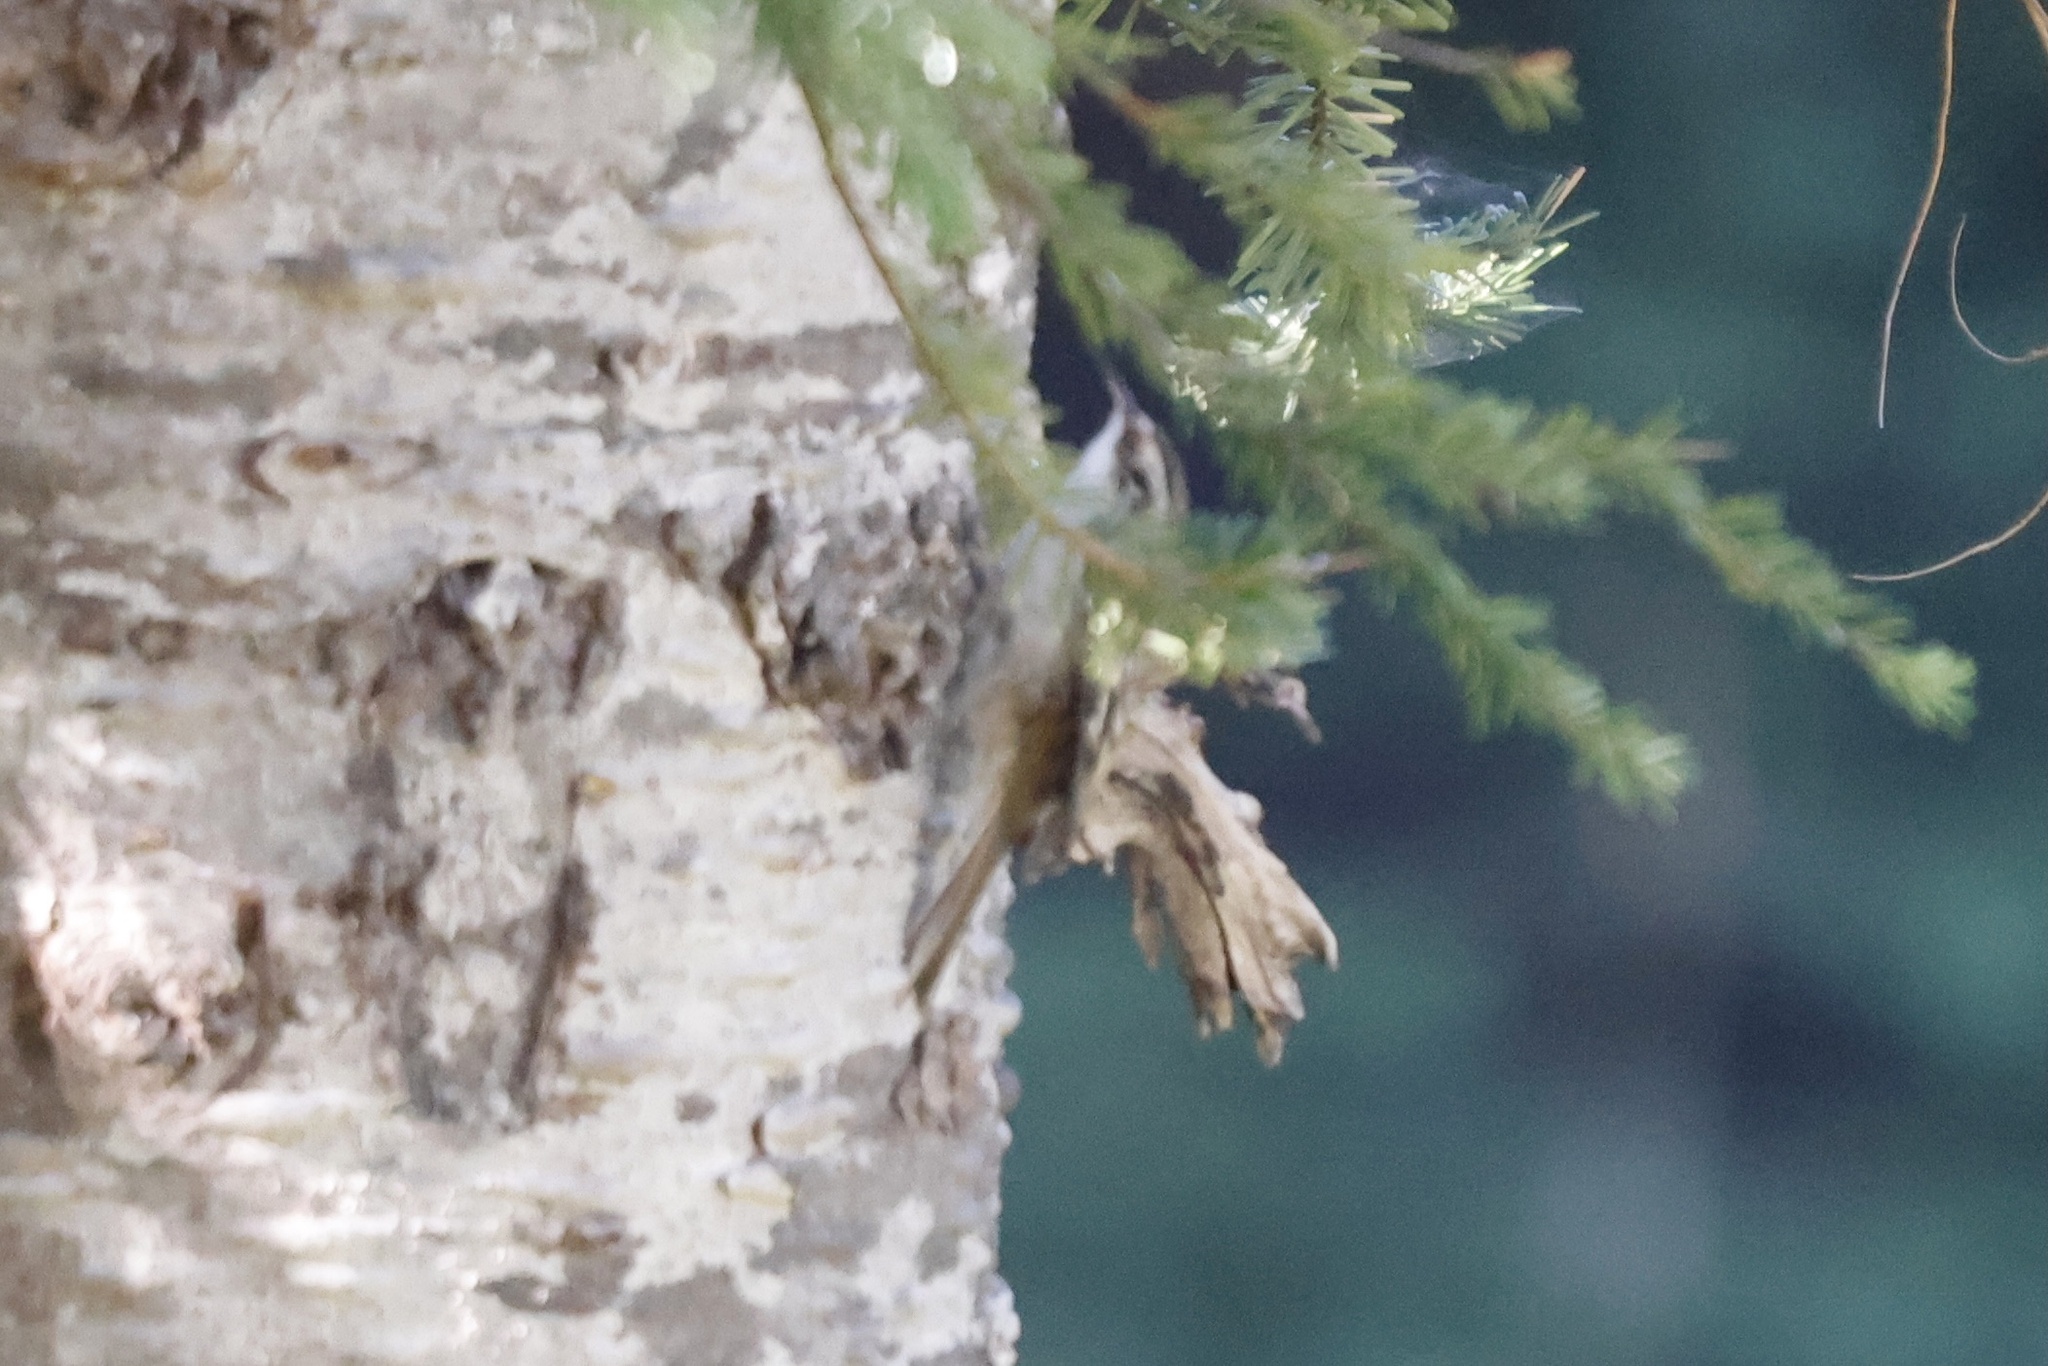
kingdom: Animalia
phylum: Chordata
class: Aves
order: Passeriformes
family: Certhiidae
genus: Certhia
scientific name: Certhia americana
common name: Brown creeper
